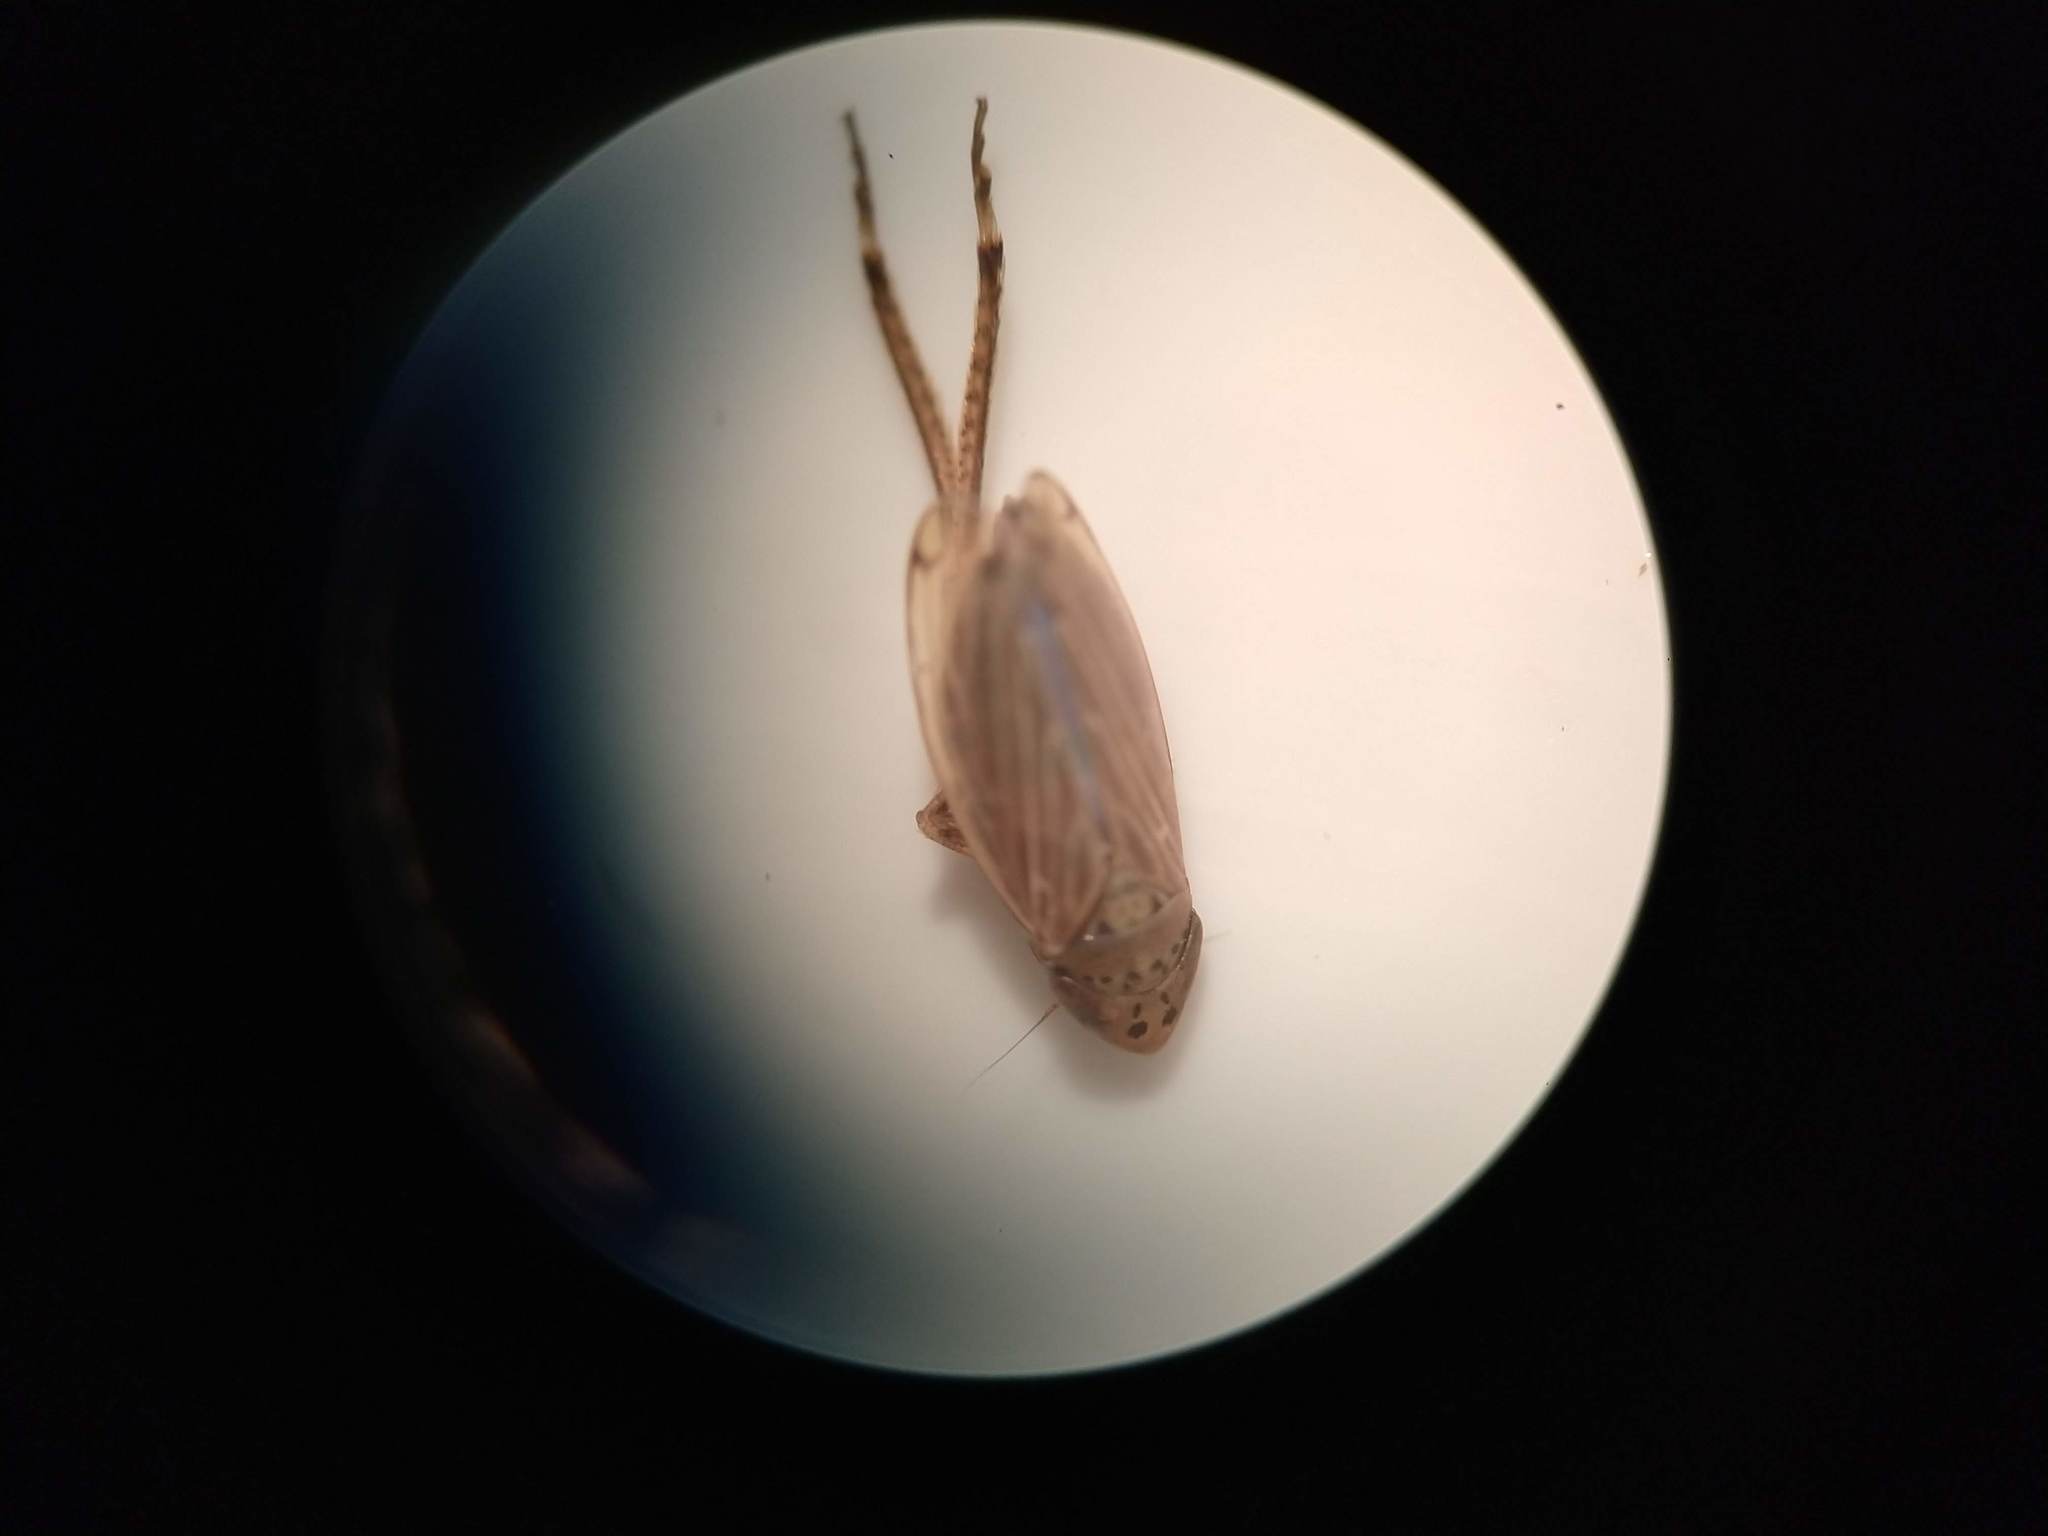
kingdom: Animalia
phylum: Arthropoda
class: Insecta
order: Hemiptera
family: Cicadellidae
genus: Stirellus
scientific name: Stirellus bicolor
